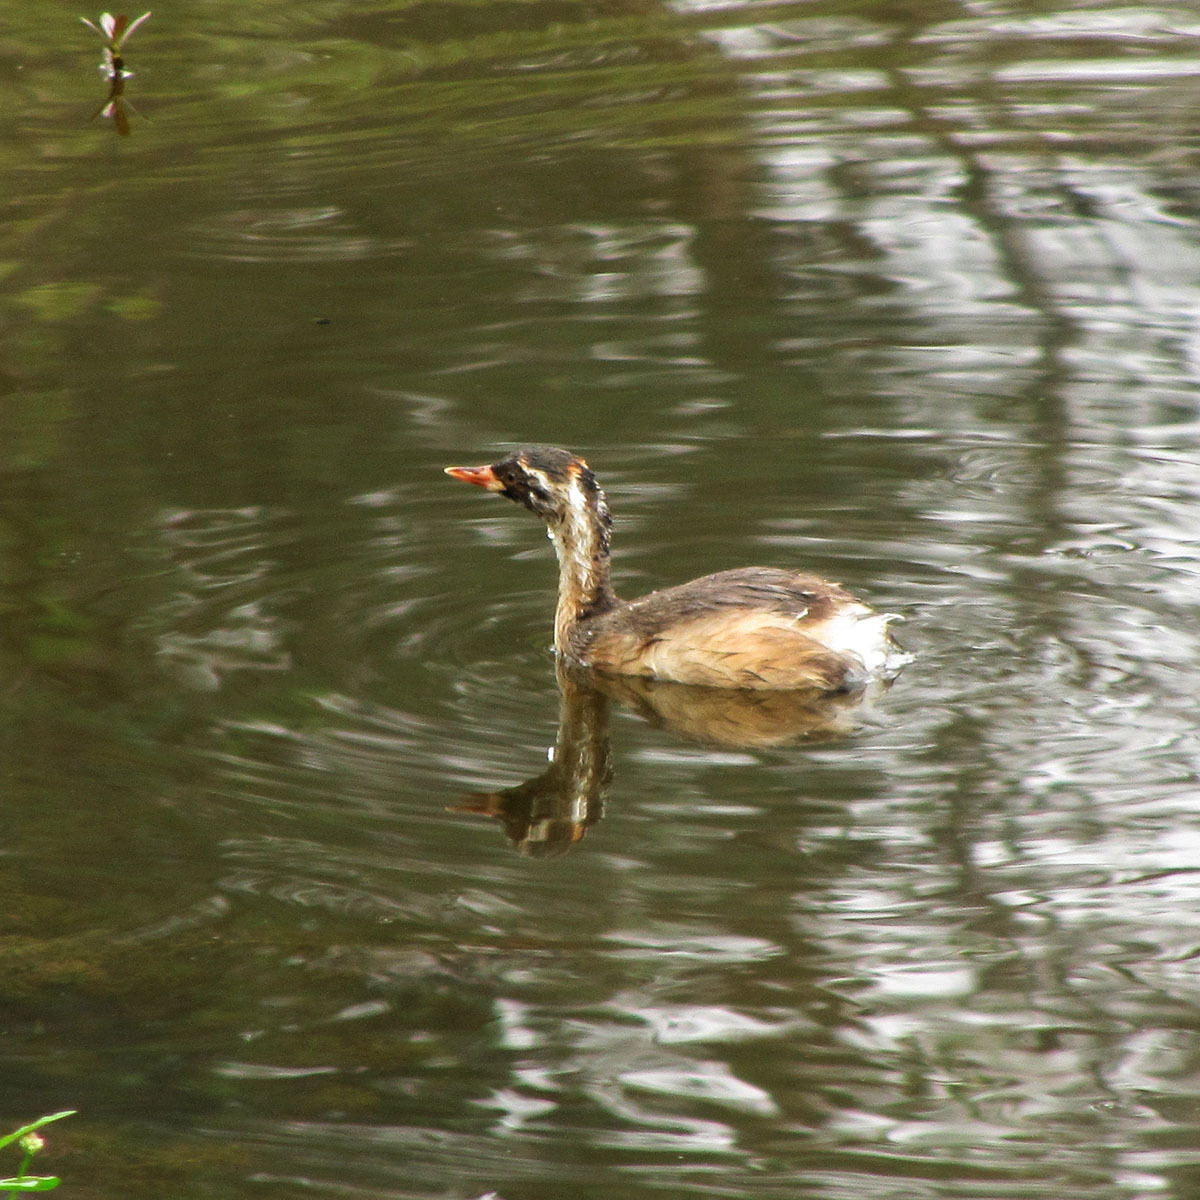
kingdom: Animalia
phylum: Chordata
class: Aves
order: Podicipediformes
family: Podicipedidae
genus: Tachybaptus
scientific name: Tachybaptus ruficollis
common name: Little grebe
